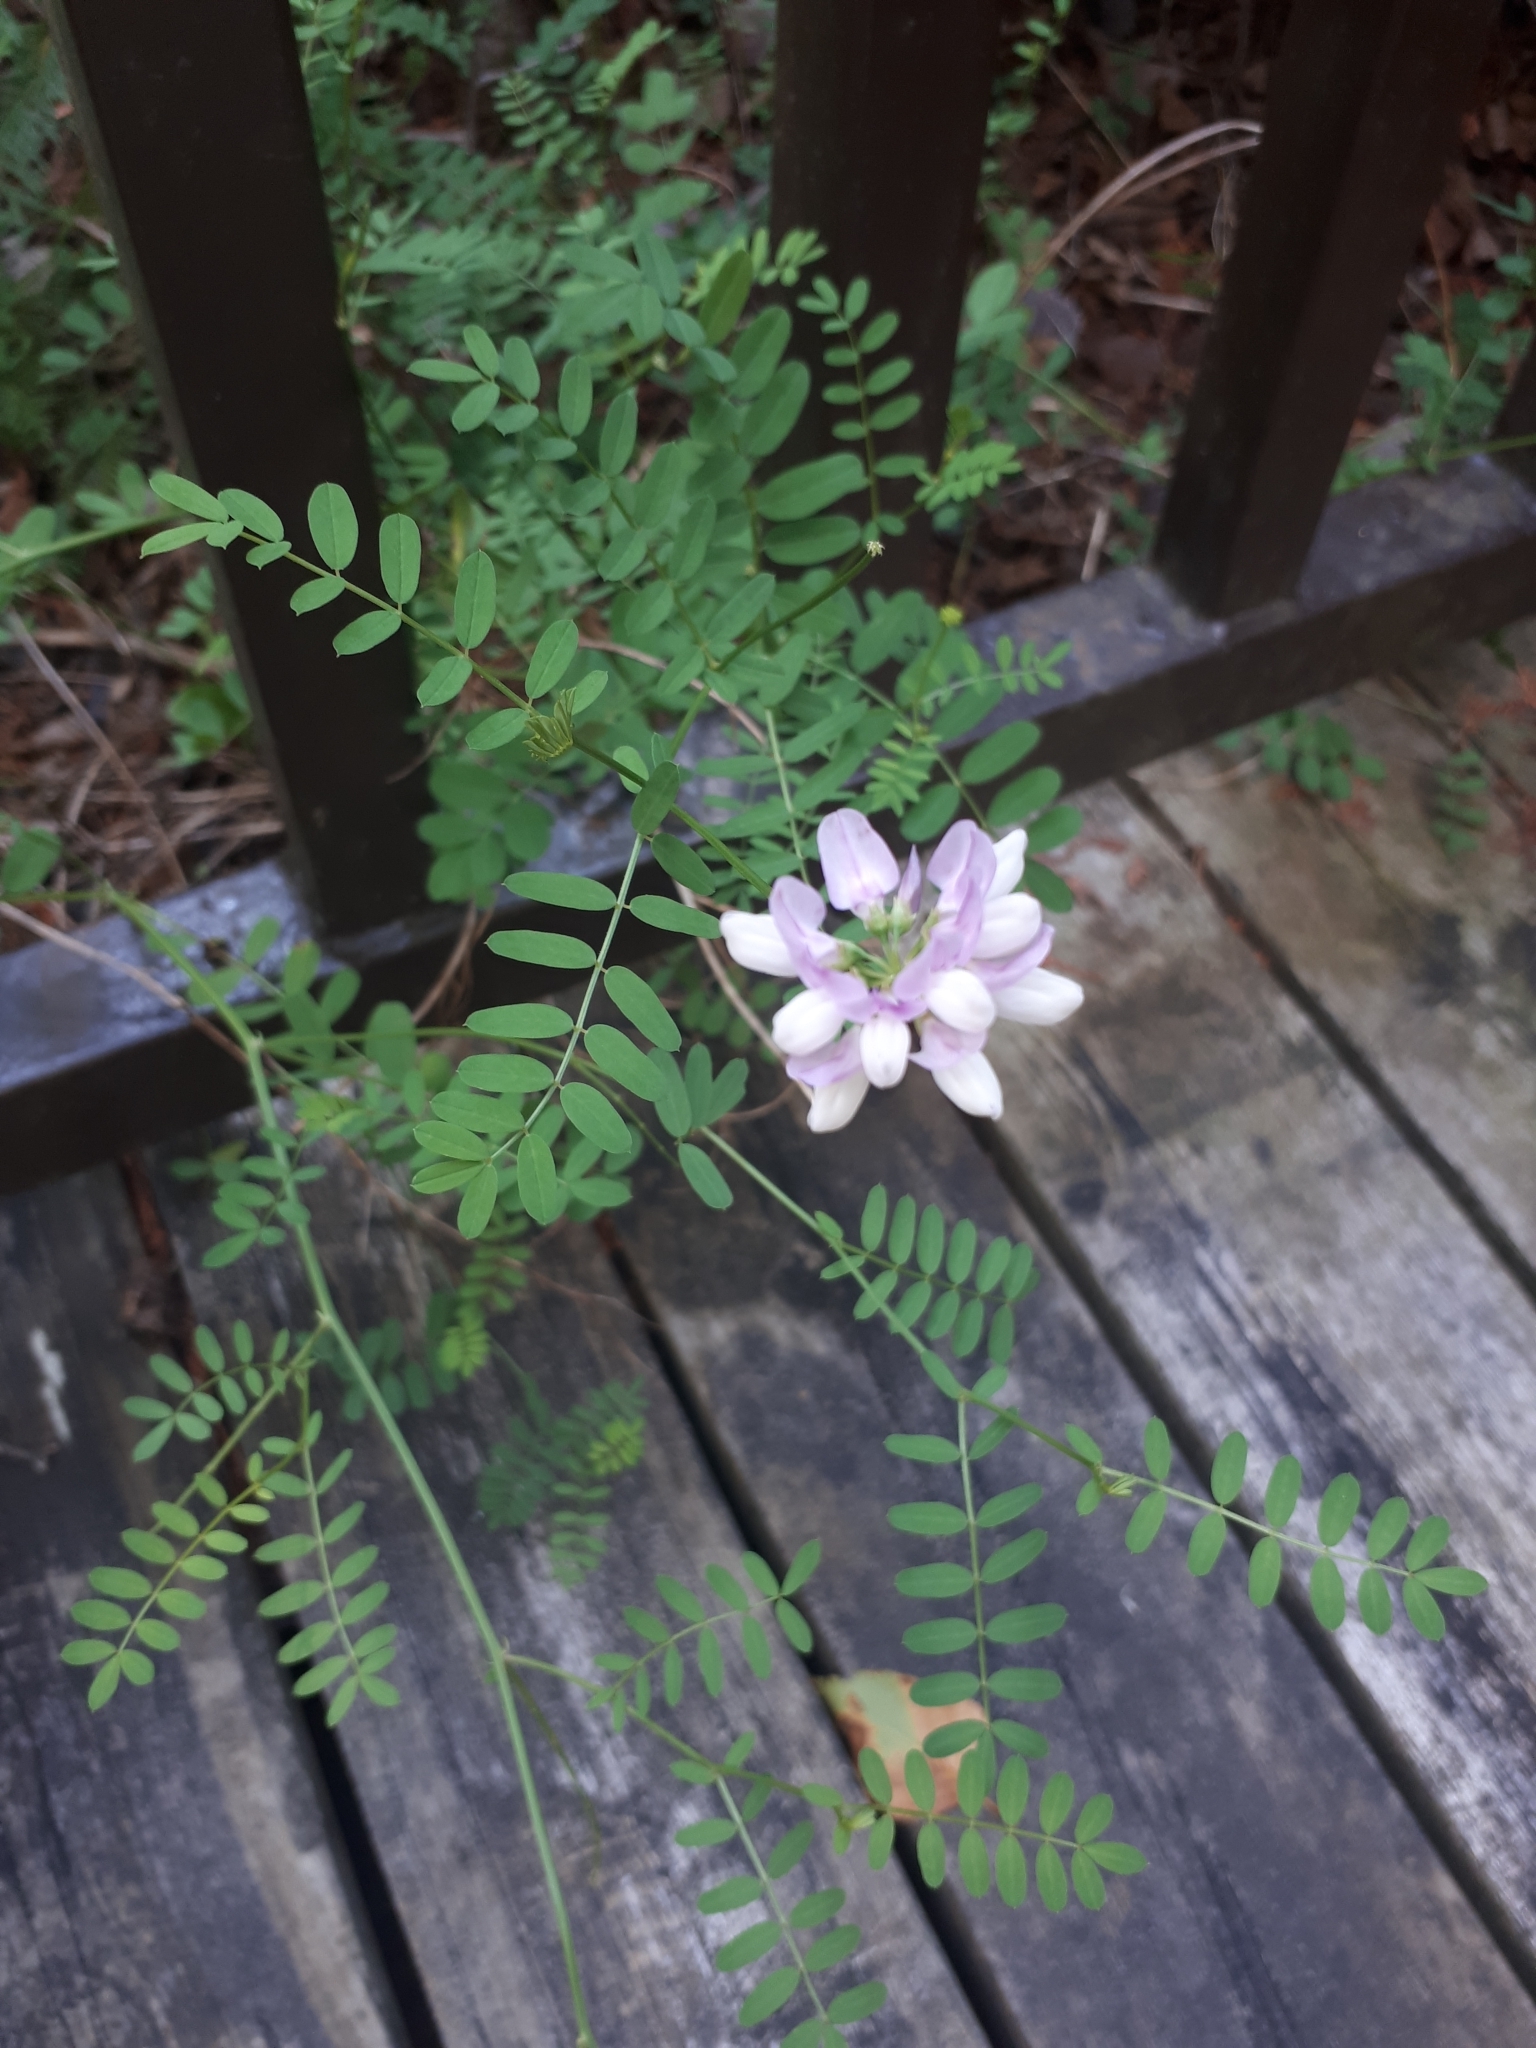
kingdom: Plantae
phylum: Tracheophyta
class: Magnoliopsida
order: Fabales
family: Fabaceae
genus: Coronilla
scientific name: Coronilla varia
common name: Crownvetch
